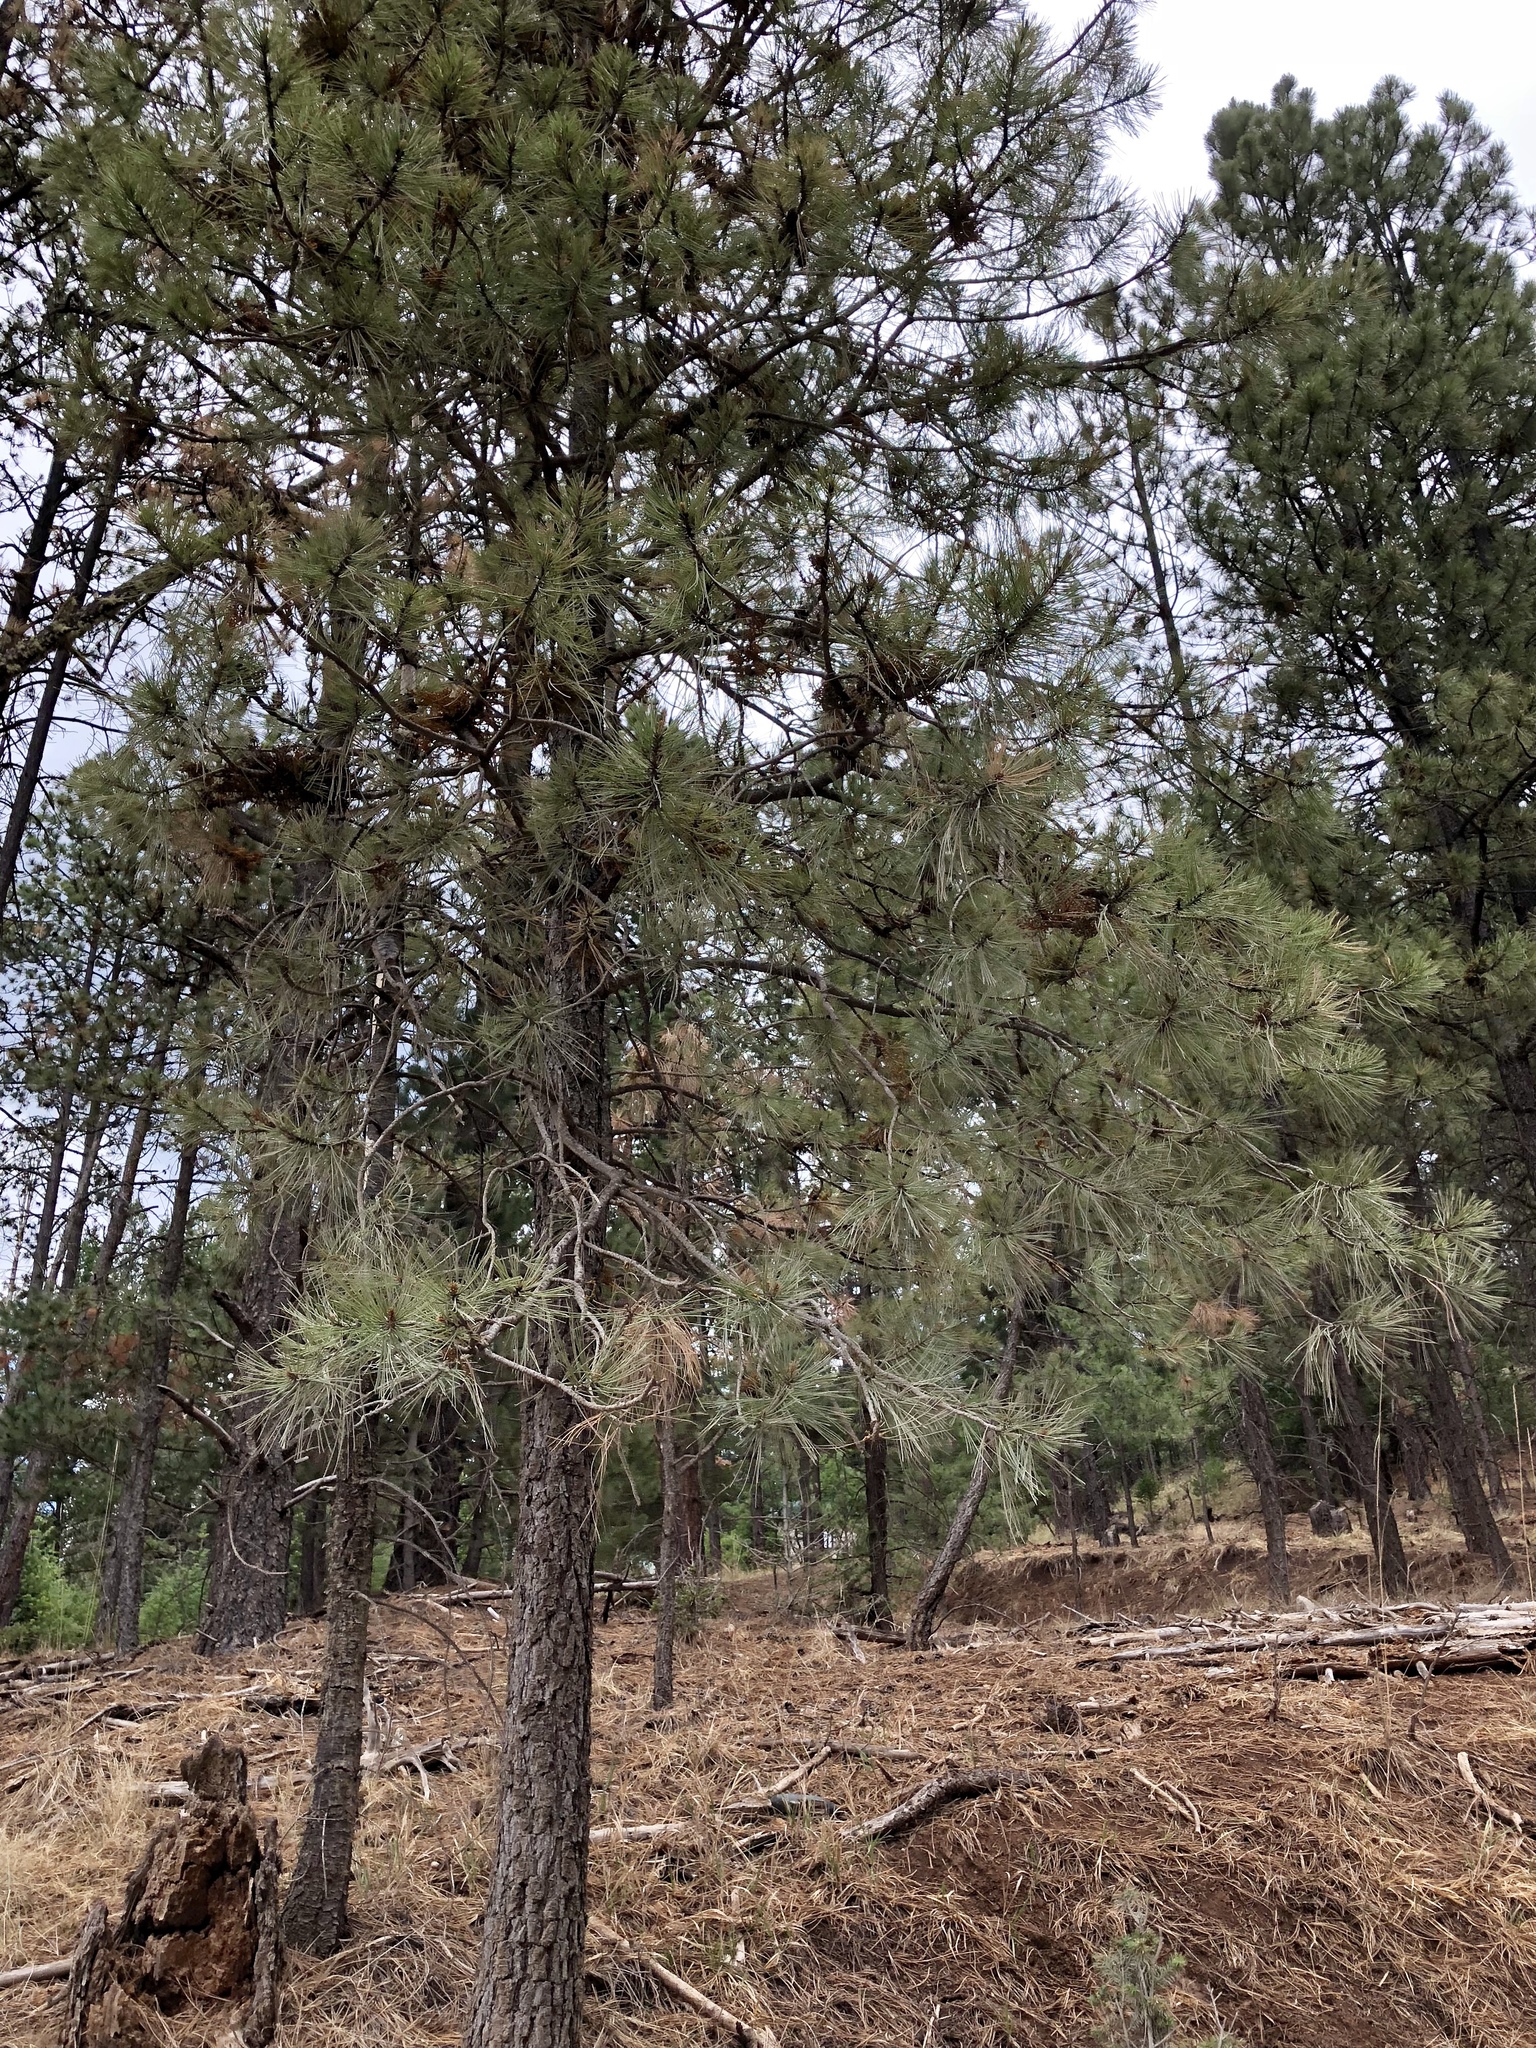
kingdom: Plantae
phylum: Tracheophyta
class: Pinopsida
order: Pinales
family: Pinaceae
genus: Pinus
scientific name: Pinus ponderosa
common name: Western yellow-pine
